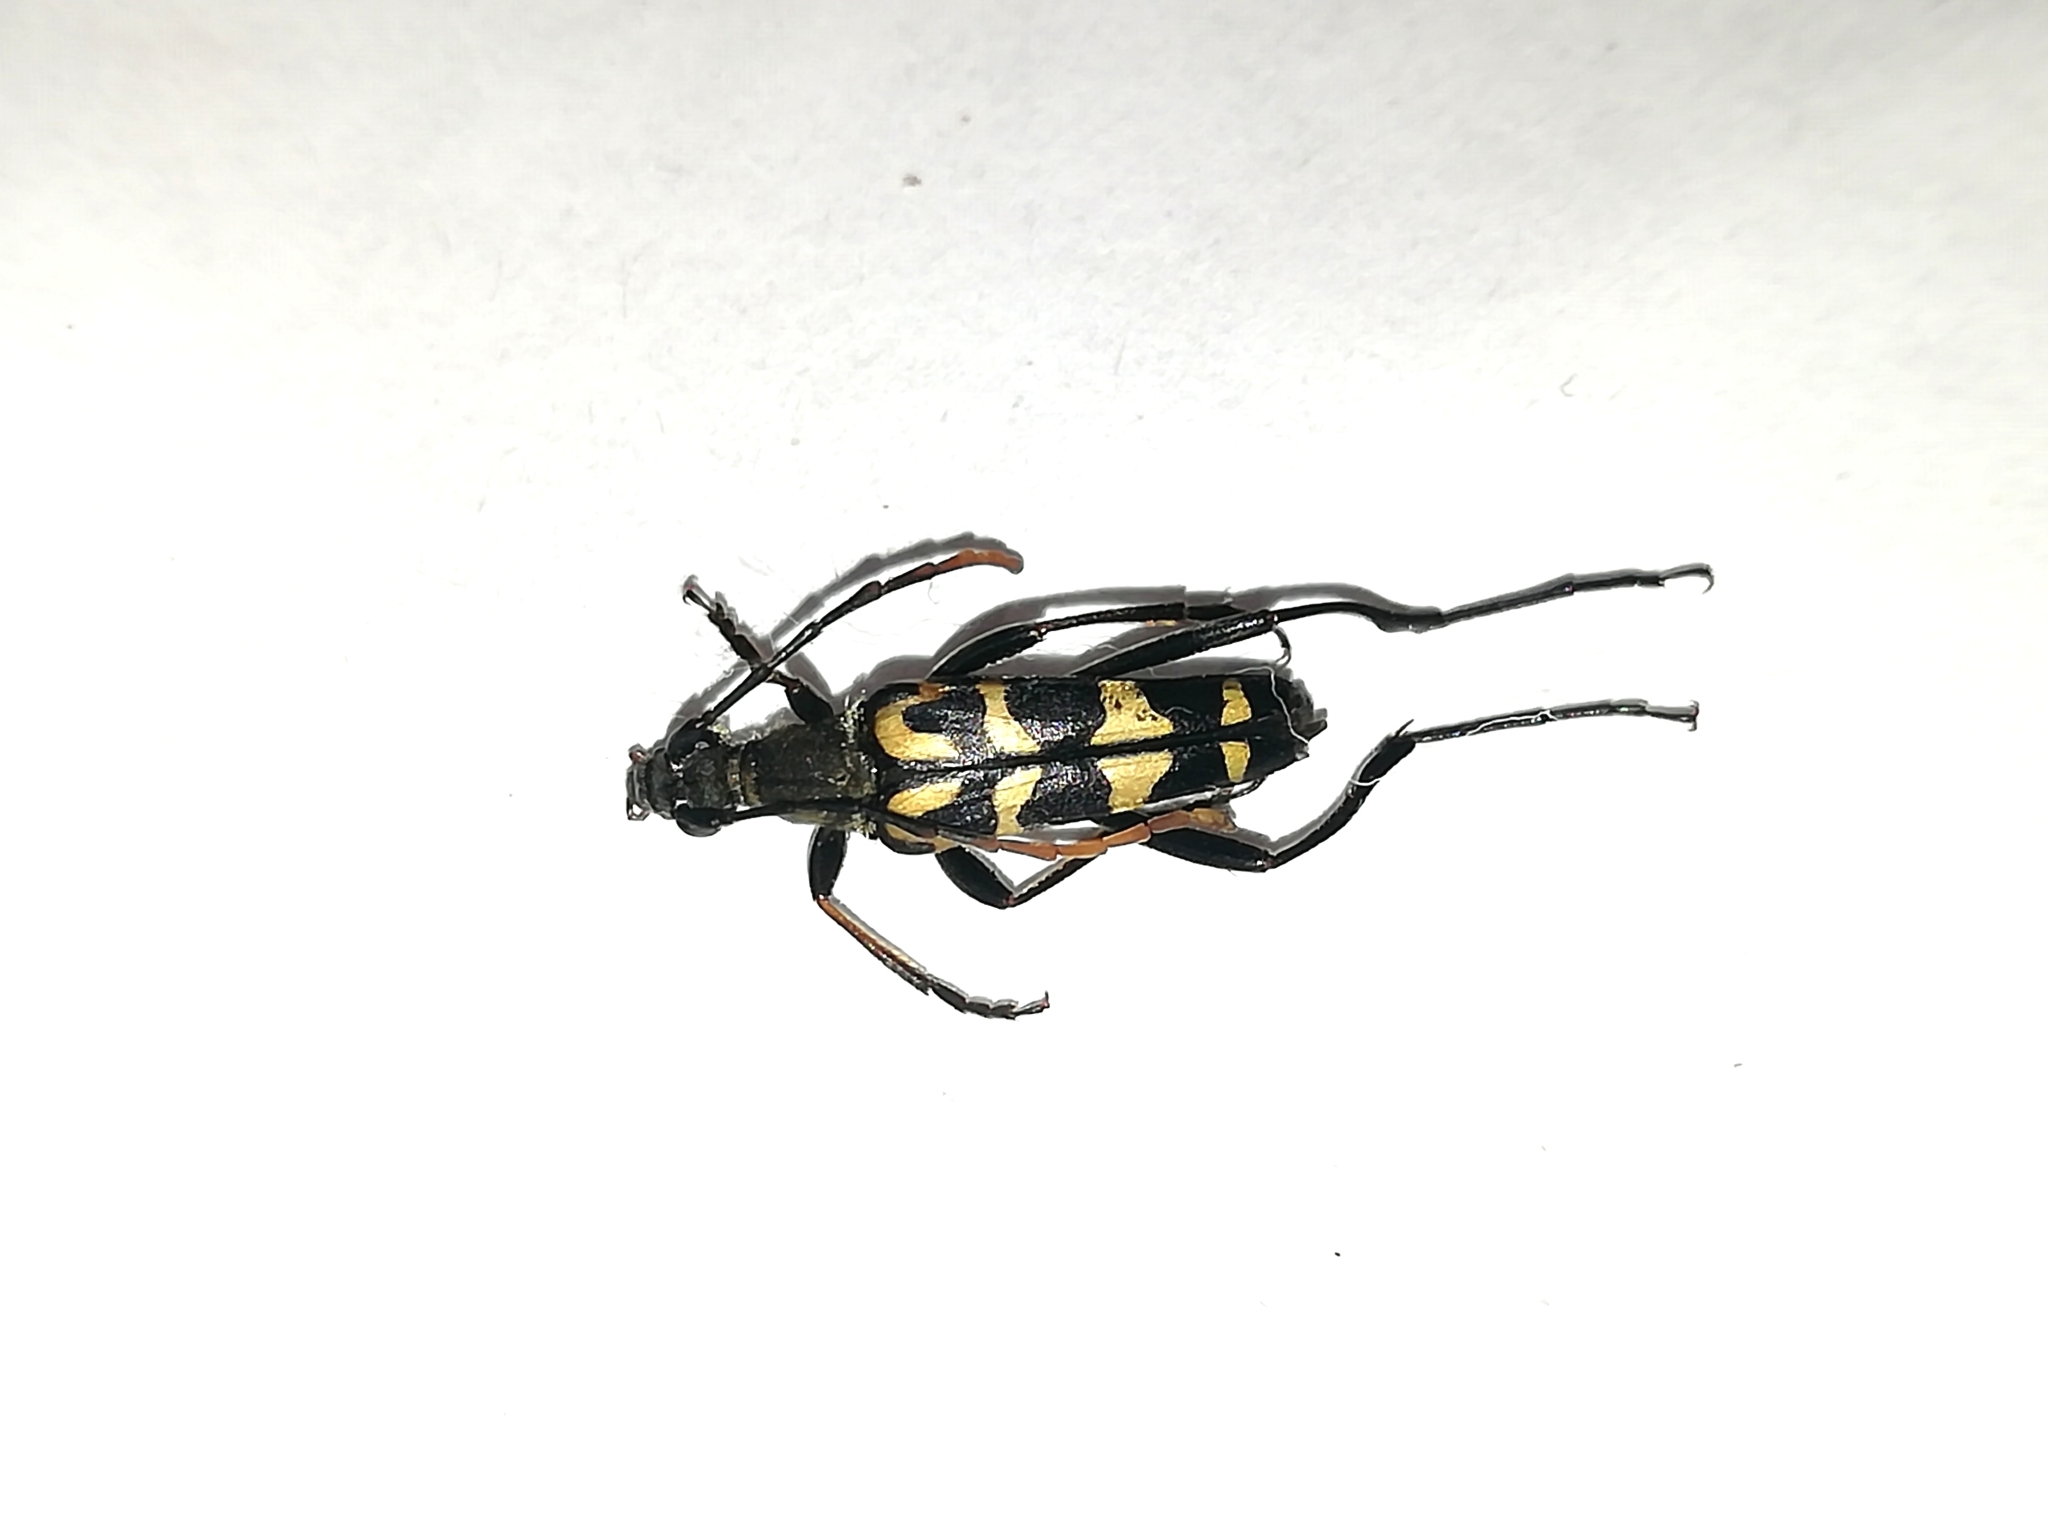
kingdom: Animalia
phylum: Arthropoda
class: Insecta
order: Coleoptera
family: Cerambycidae
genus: Leptura
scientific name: Leptura annularis
